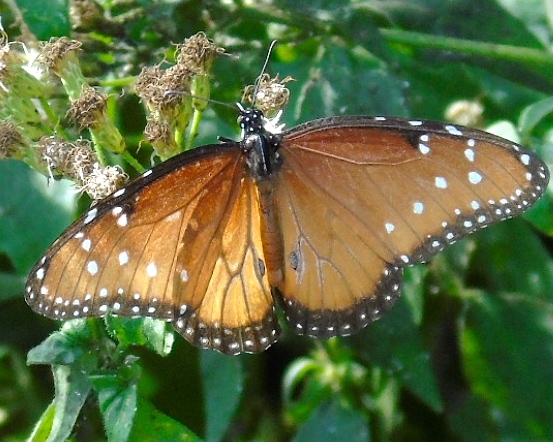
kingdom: Animalia
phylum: Arthropoda
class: Insecta
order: Lepidoptera
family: Nymphalidae
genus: Danaus
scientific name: Danaus gilippus
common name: Queen
